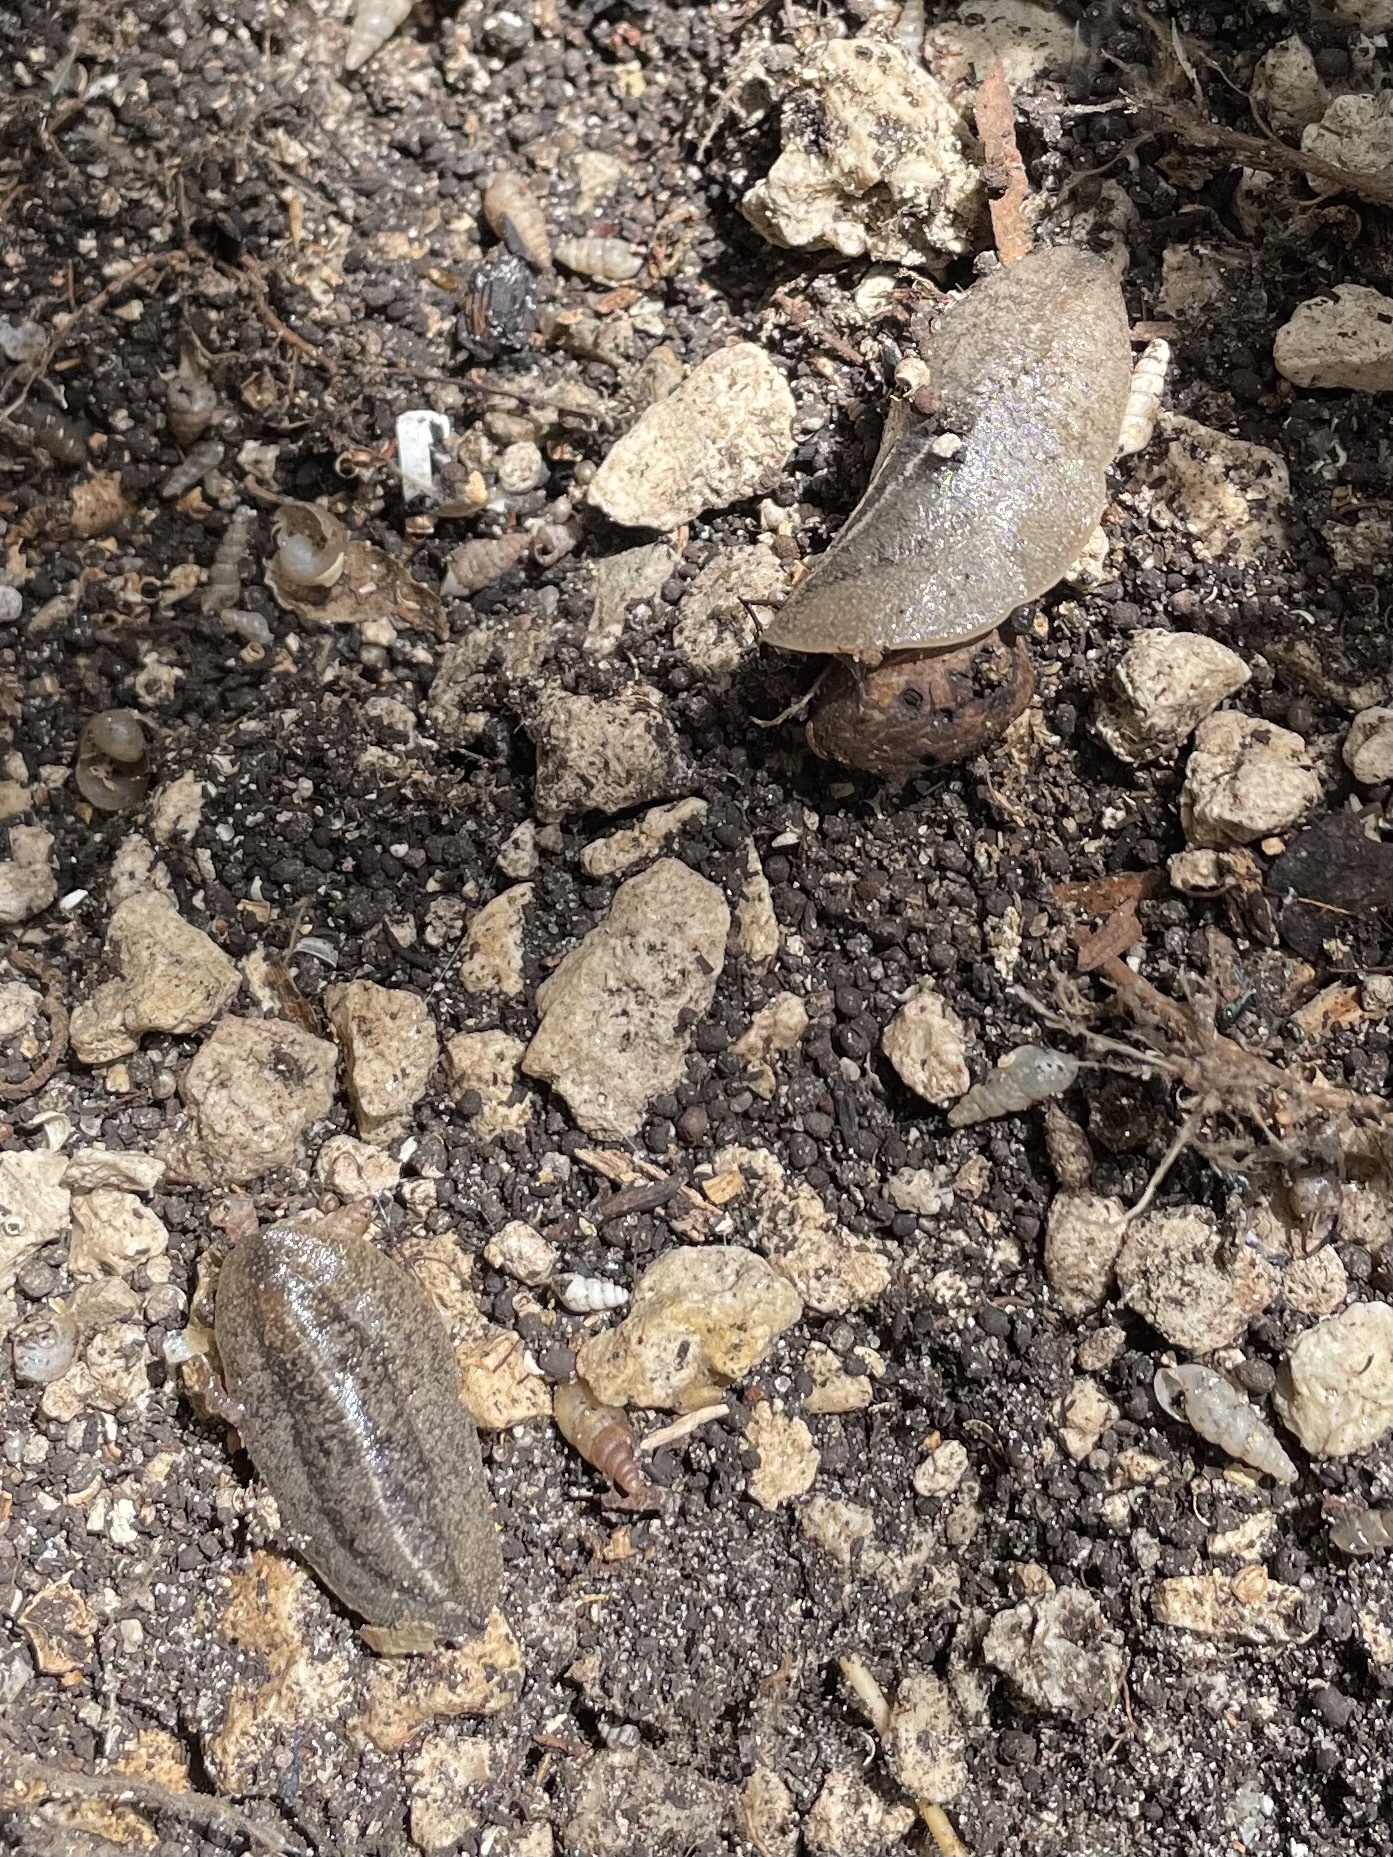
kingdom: Animalia
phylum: Mollusca
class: Gastropoda
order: Systellommatophora
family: Veronicellidae
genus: Leidyula
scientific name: Leidyula floridana
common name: Florida leatherleaf
